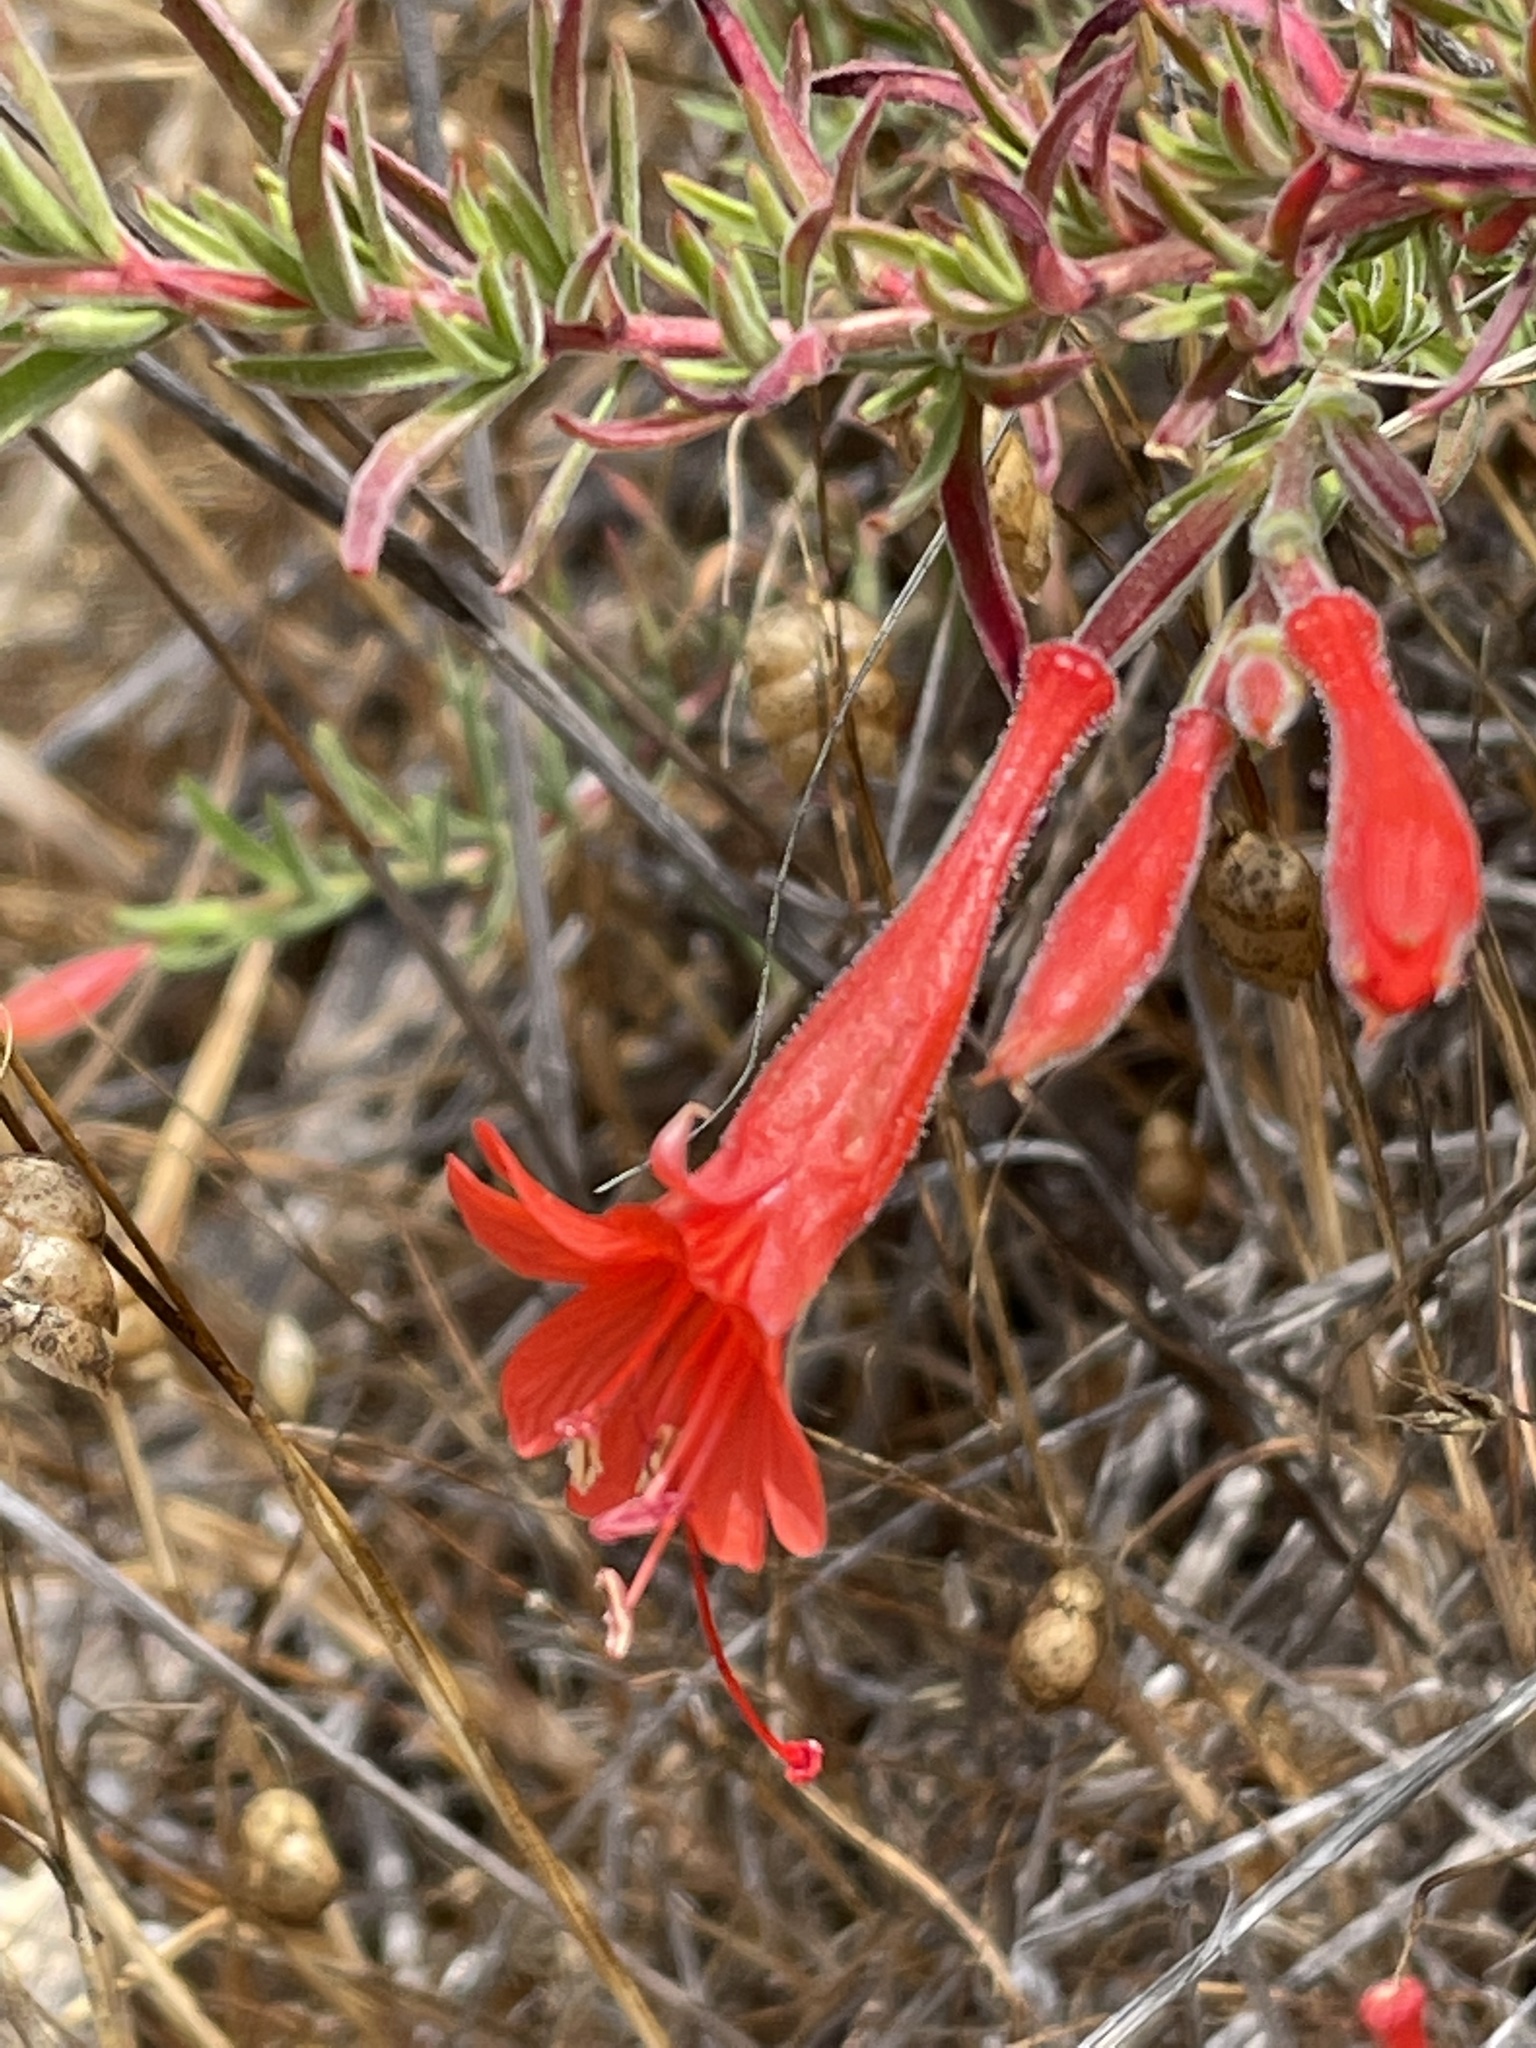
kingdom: Plantae
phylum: Tracheophyta
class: Magnoliopsida
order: Myrtales
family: Onagraceae
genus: Epilobium
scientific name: Epilobium canum
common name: California-fuchsia
